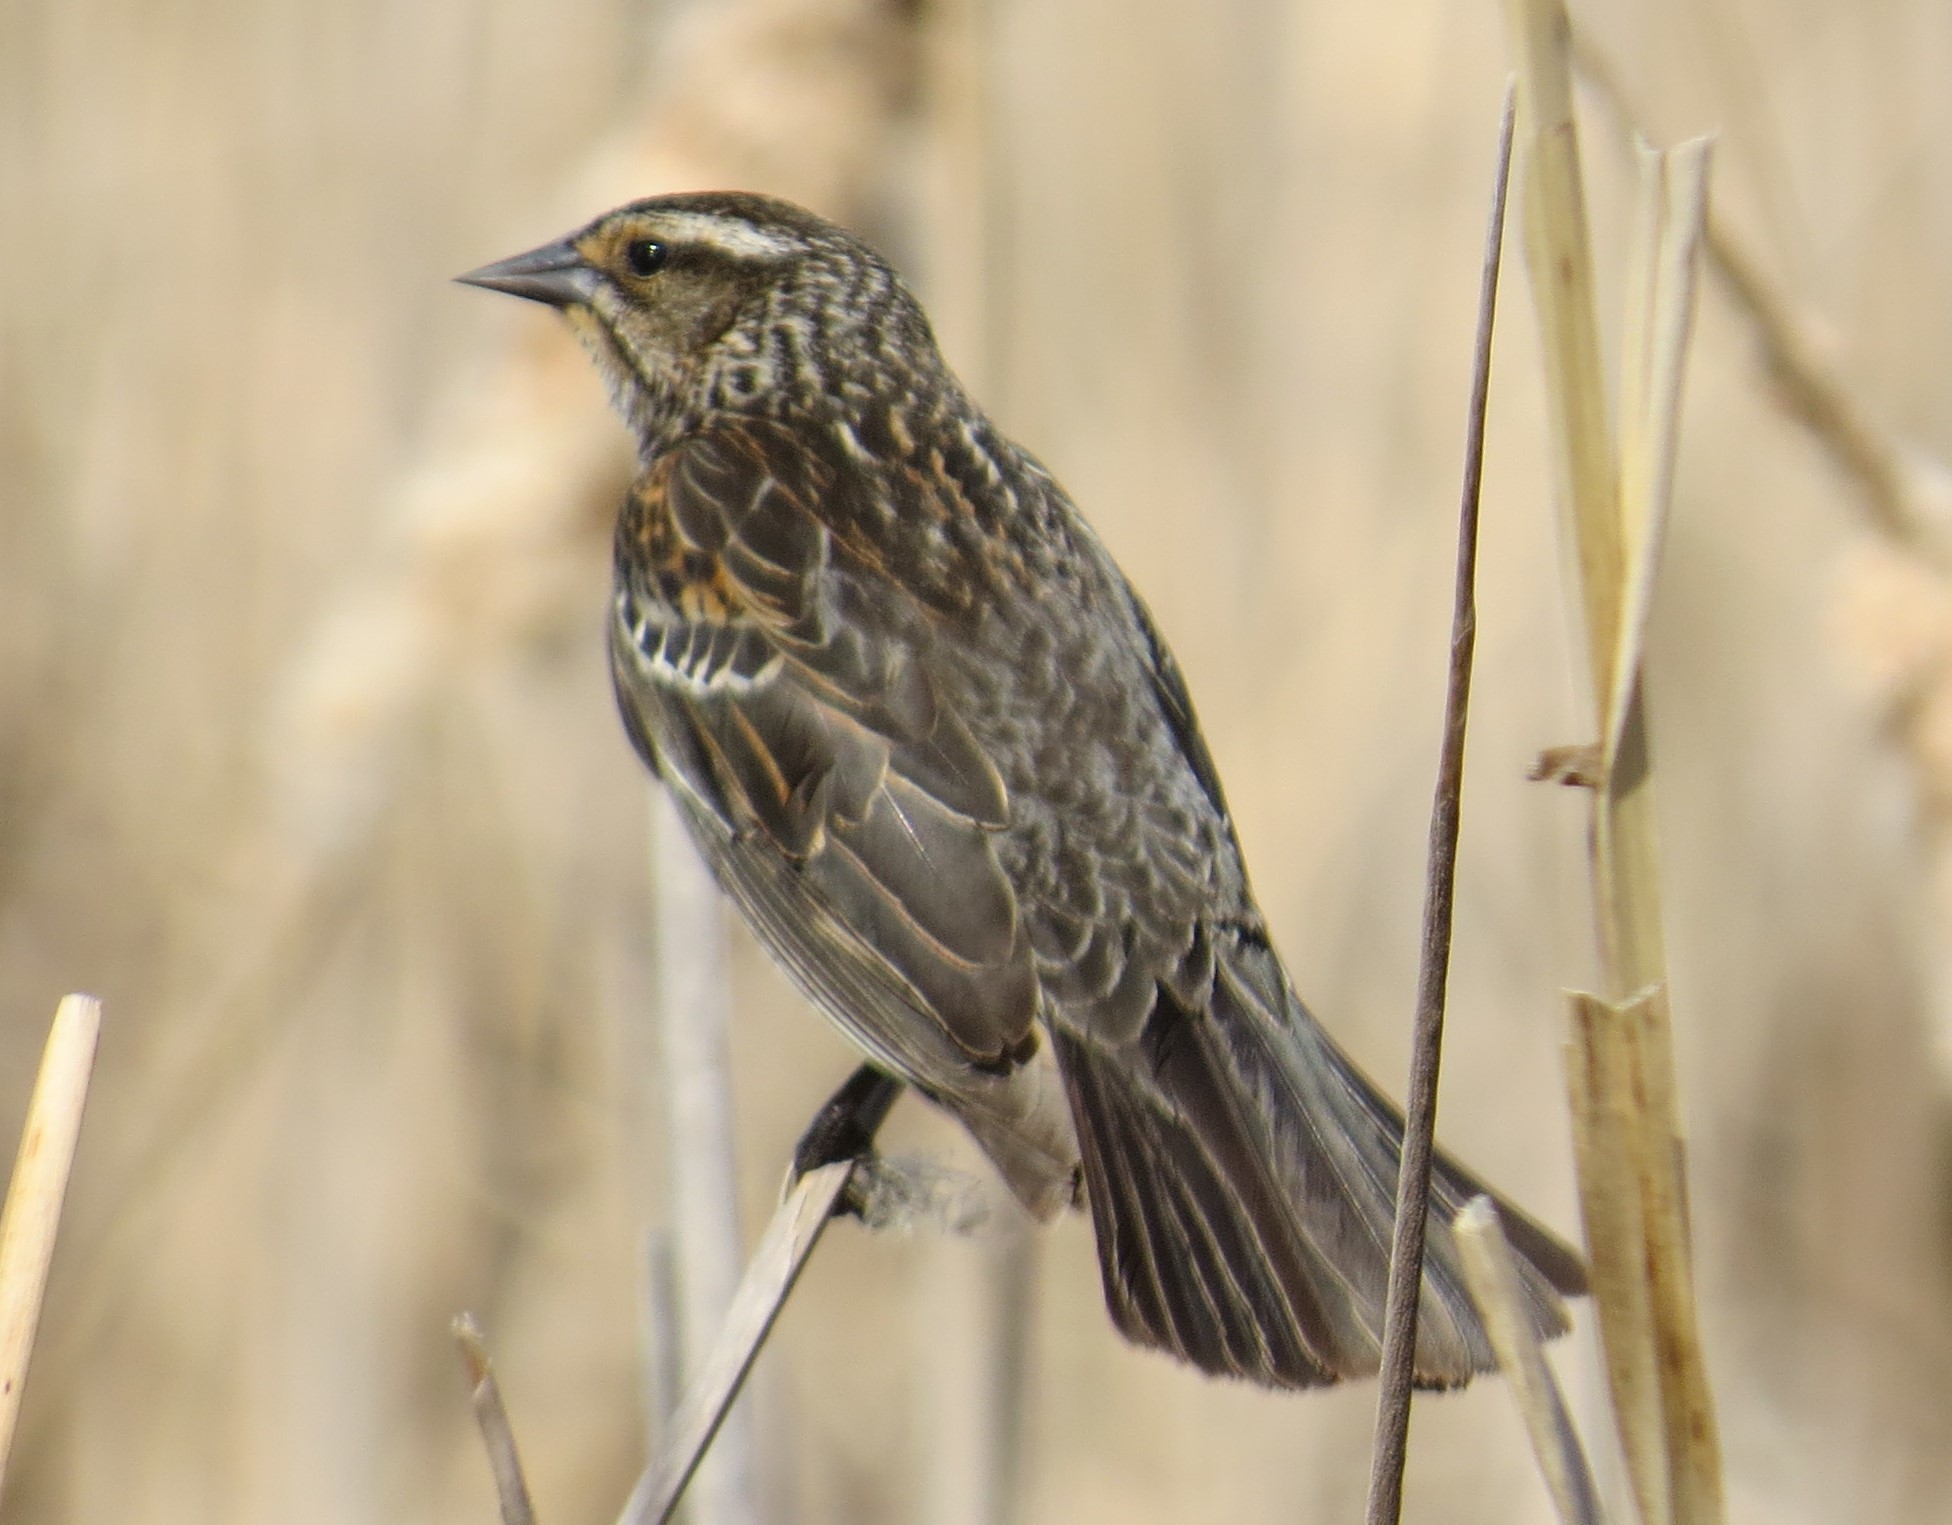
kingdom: Animalia
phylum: Chordata
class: Aves
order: Passeriformes
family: Icteridae
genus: Agelaius
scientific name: Agelaius phoeniceus
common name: Red-winged blackbird
